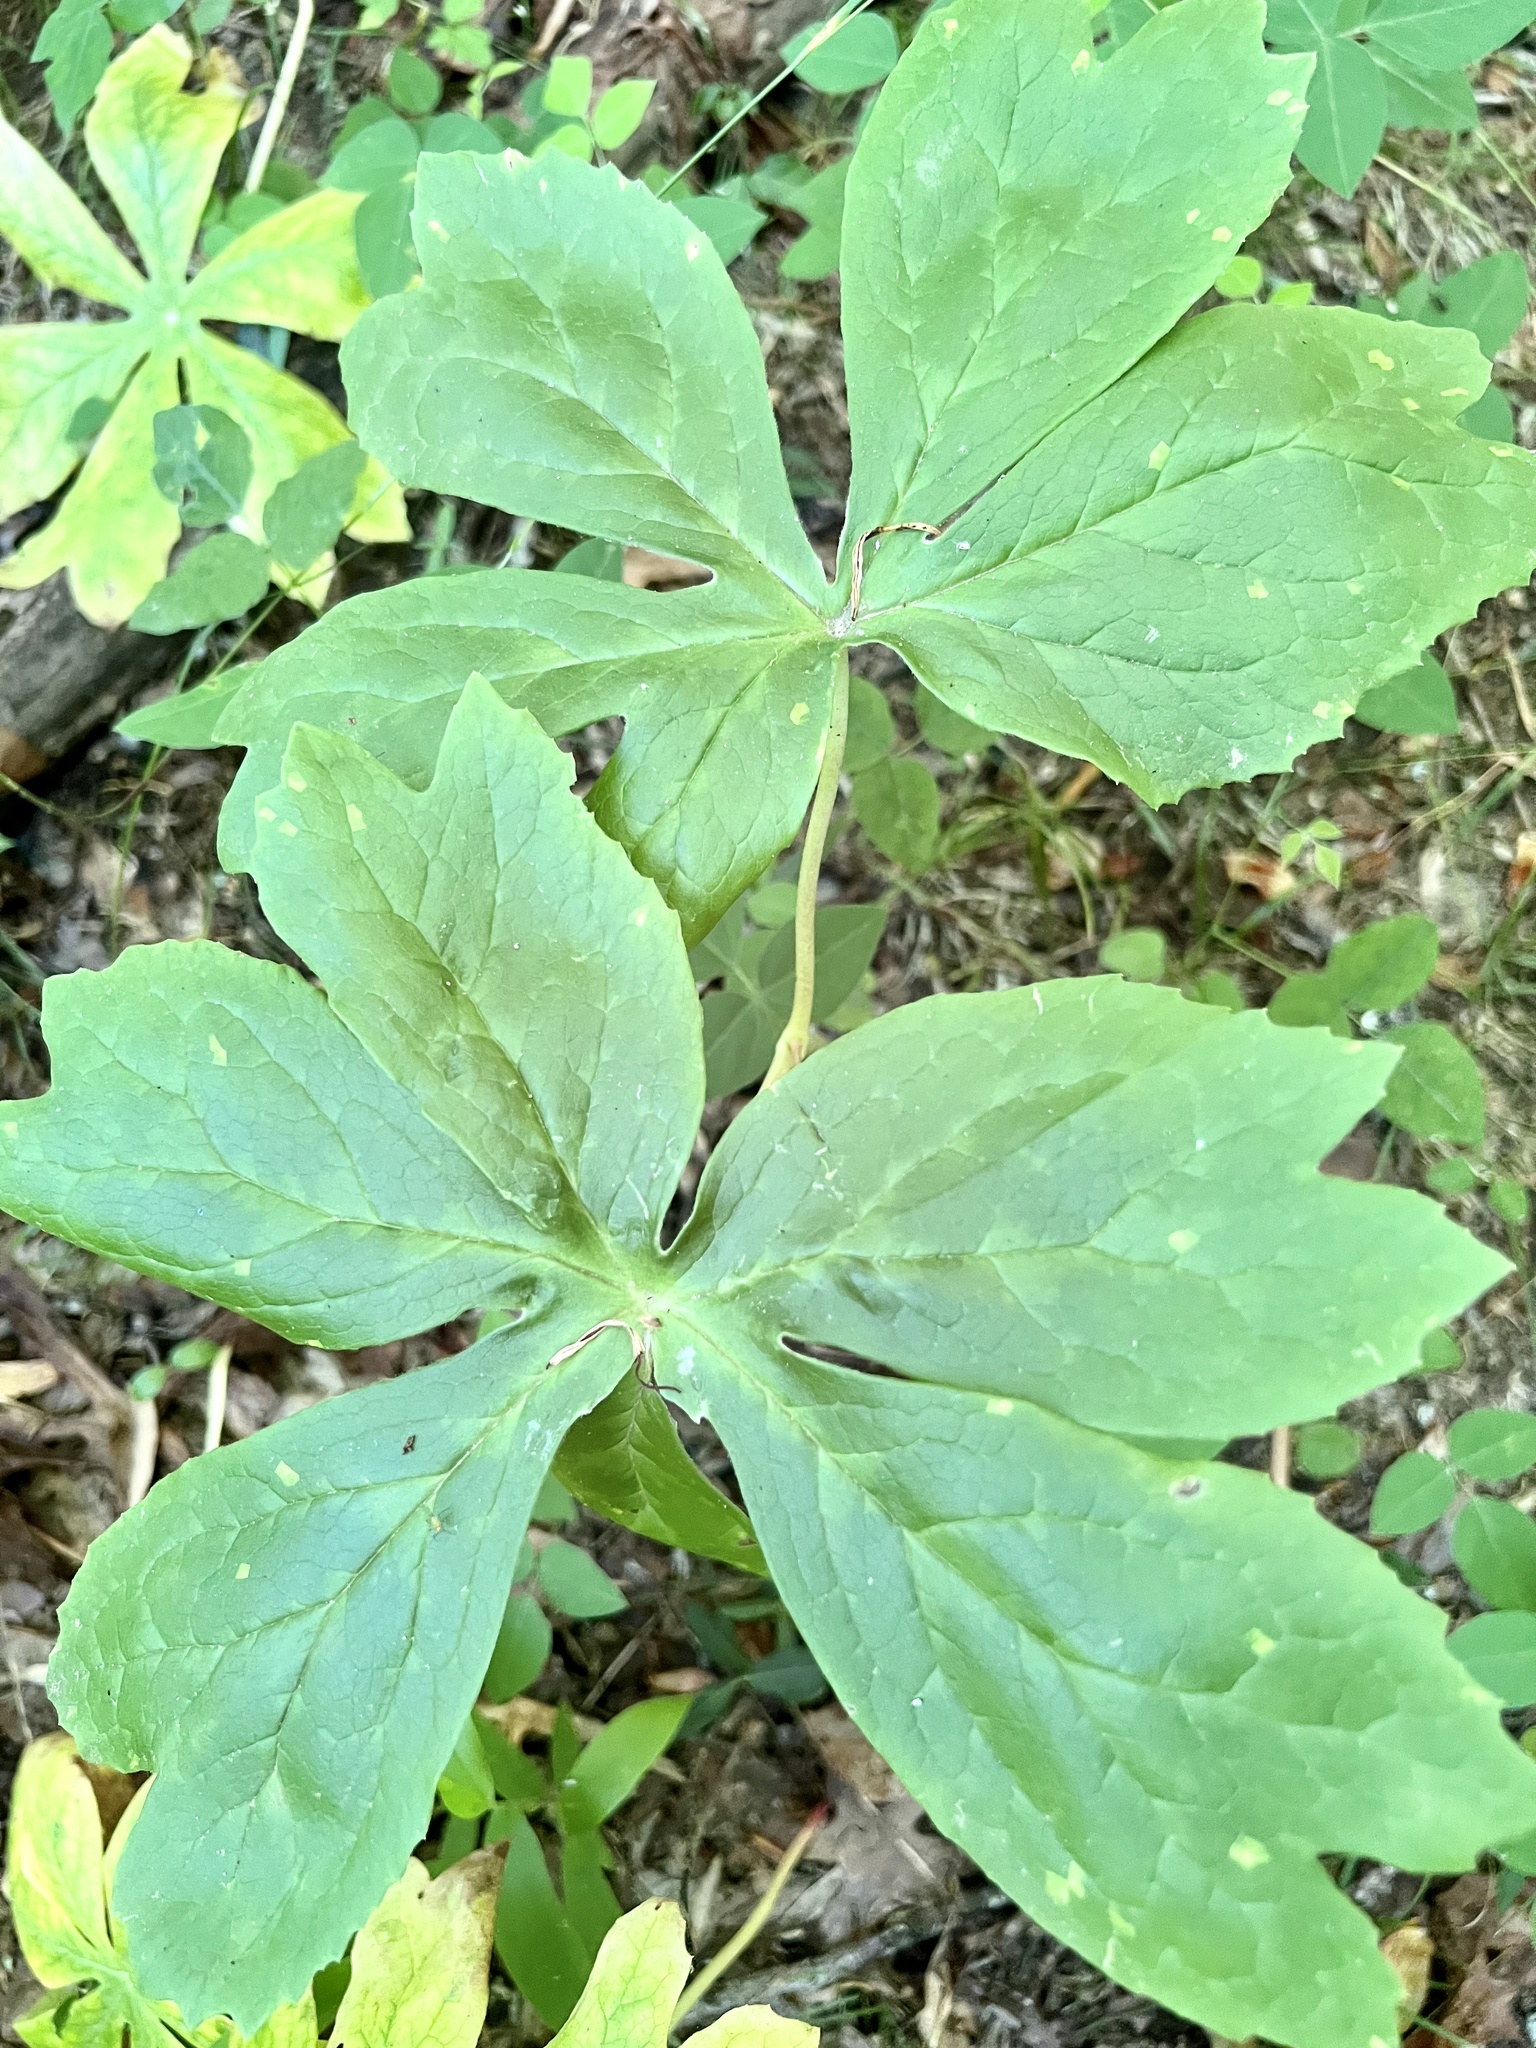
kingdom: Plantae
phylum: Tracheophyta
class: Magnoliopsida
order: Ranunculales
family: Berberidaceae
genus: Podophyllum
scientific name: Podophyllum peltatum
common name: Wild mandrake
